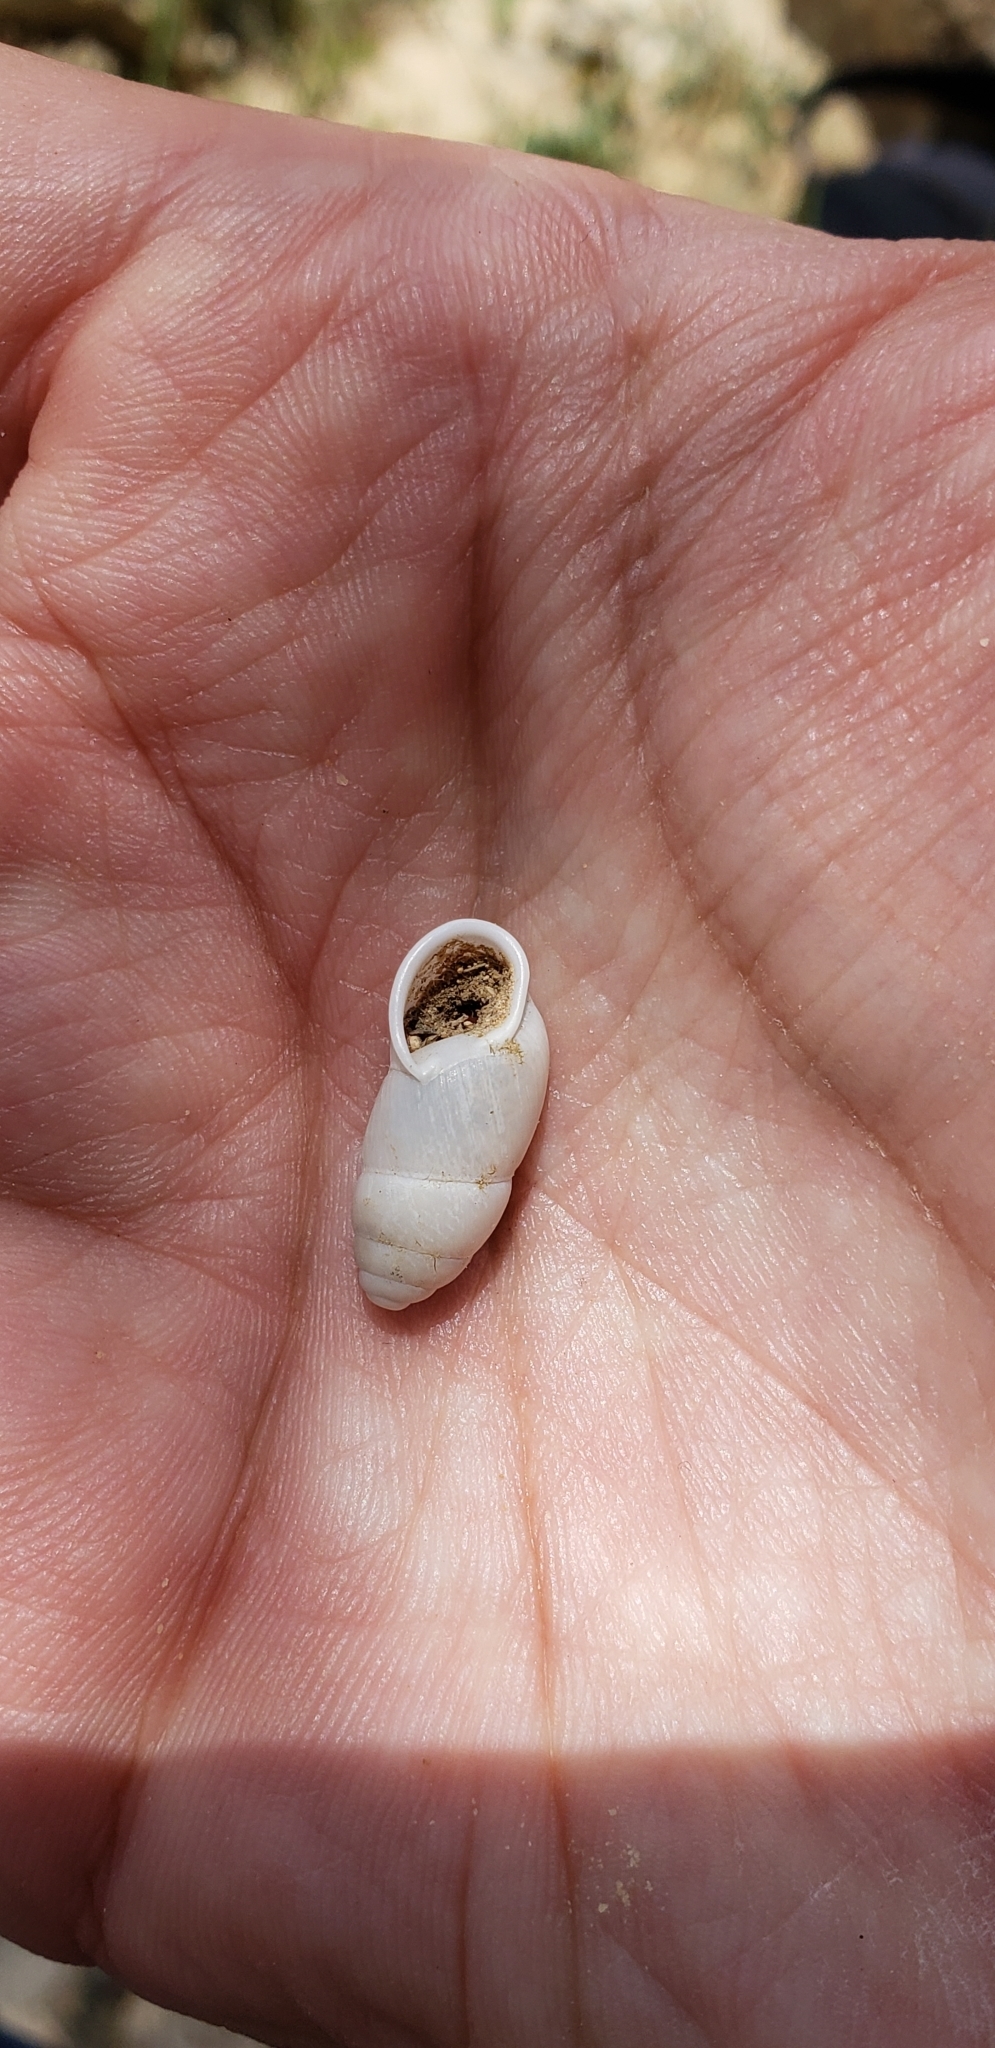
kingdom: Animalia
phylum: Mollusca
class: Gastropoda
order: Stylommatophora
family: Enidae
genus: Buliminus
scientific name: Buliminus sinaiensis
